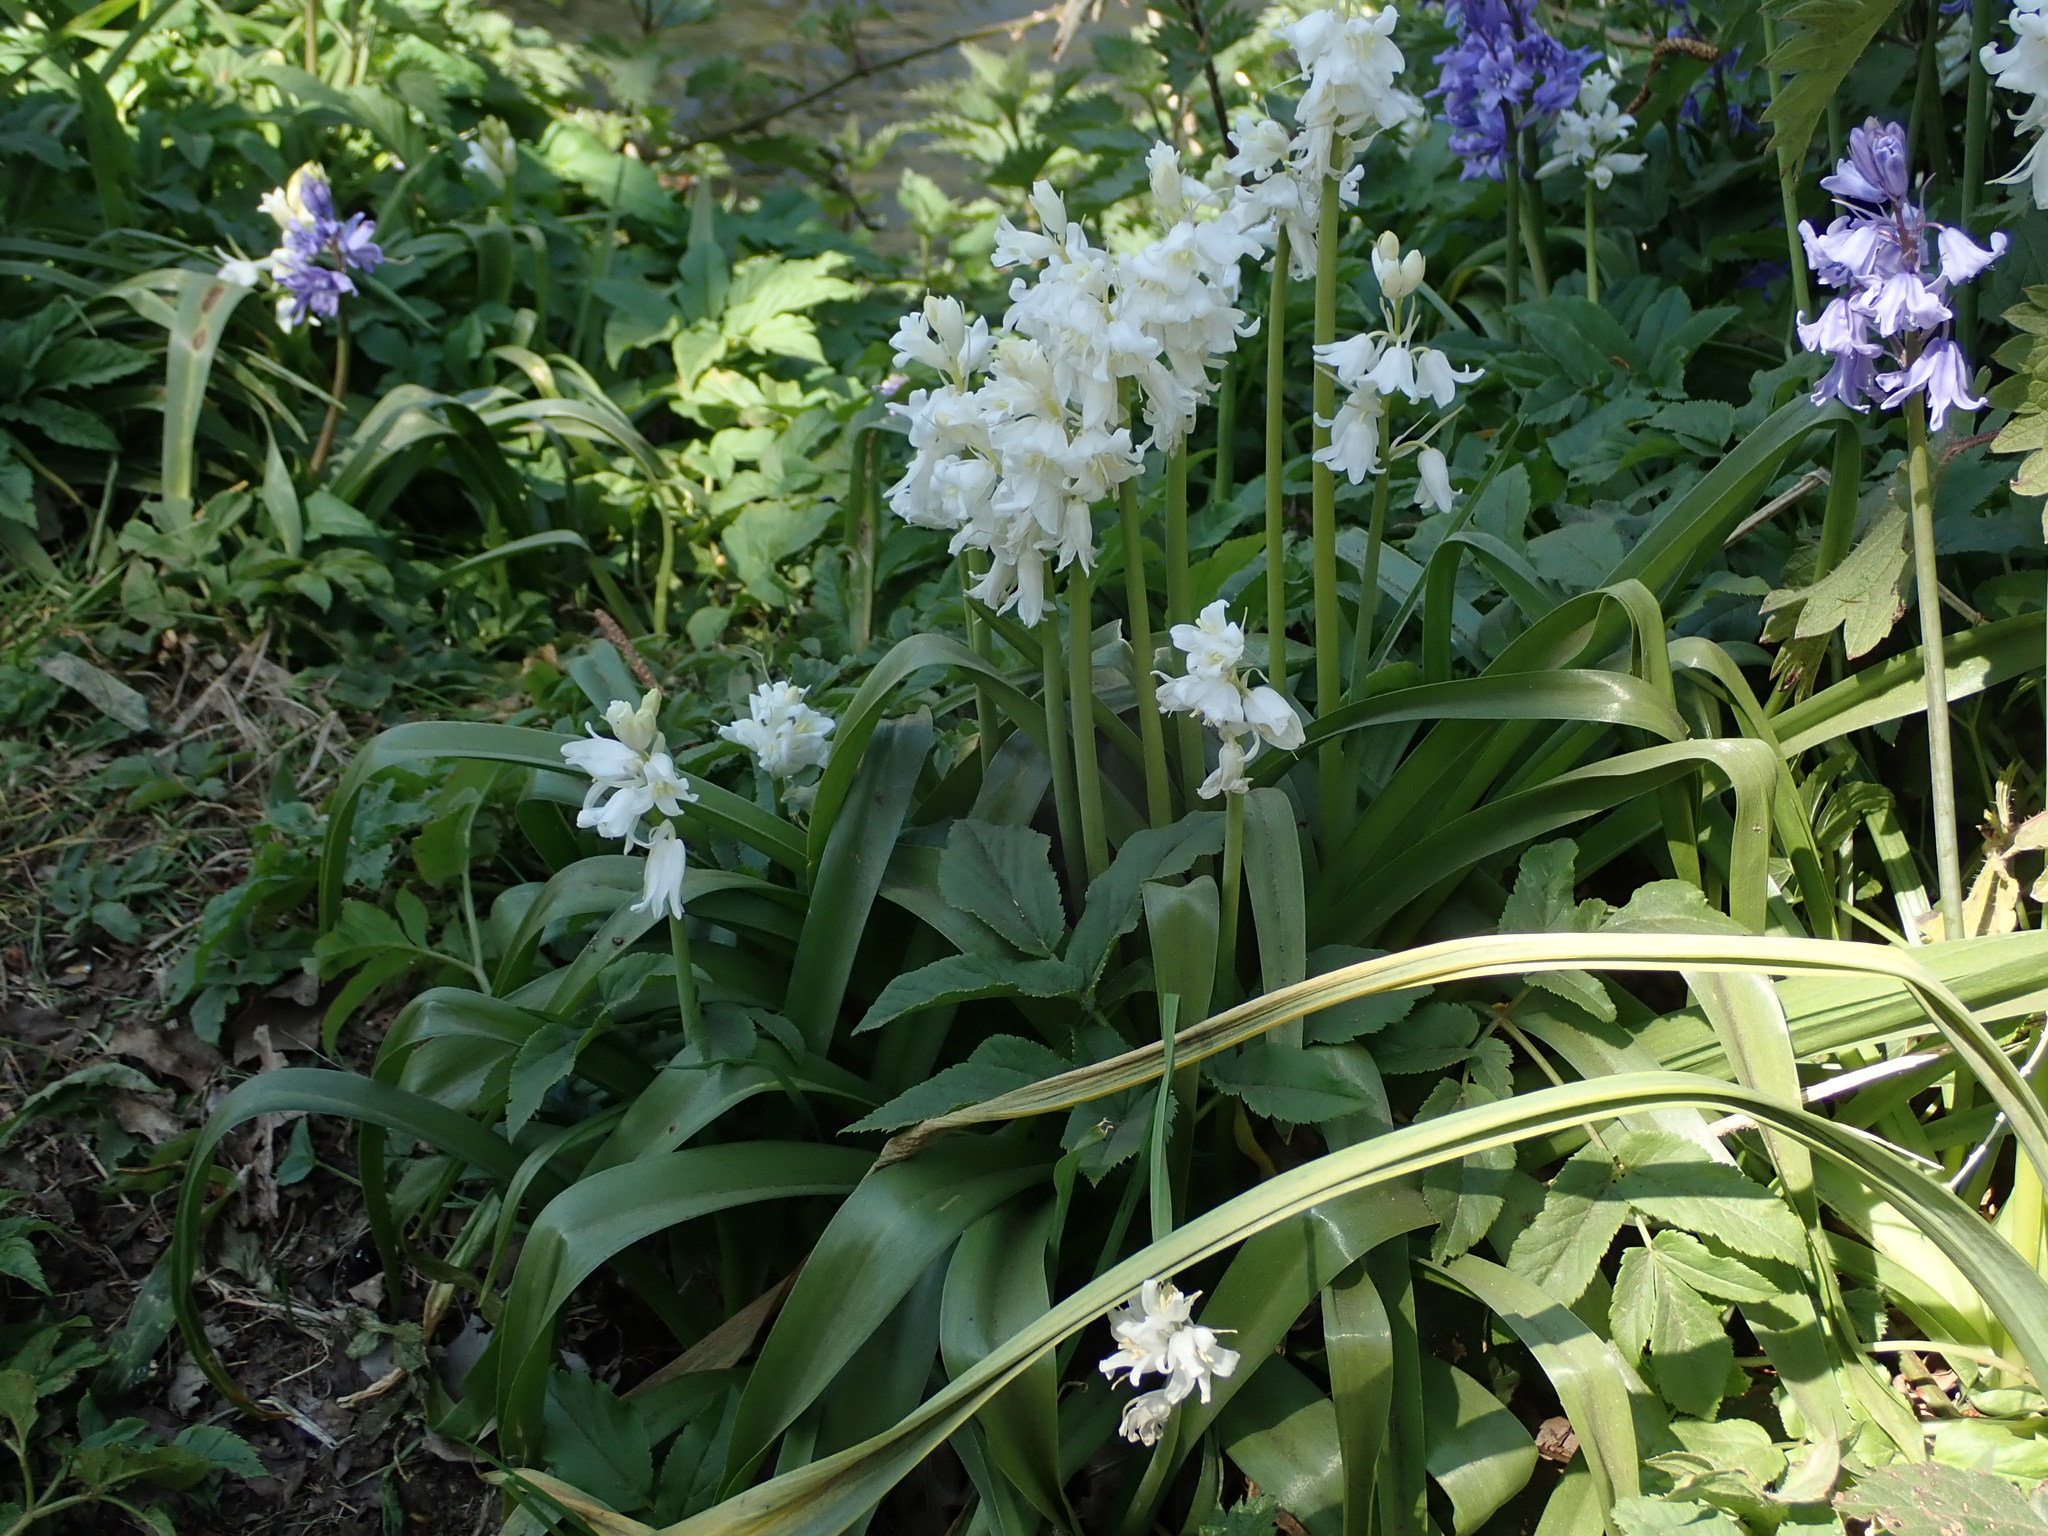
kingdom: Plantae
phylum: Tracheophyta
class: Liliopsida
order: Asparagales
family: Asparagaceae
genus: Hyacinthoides
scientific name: Hyacinthoides massartiana
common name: Hyacinthoides
